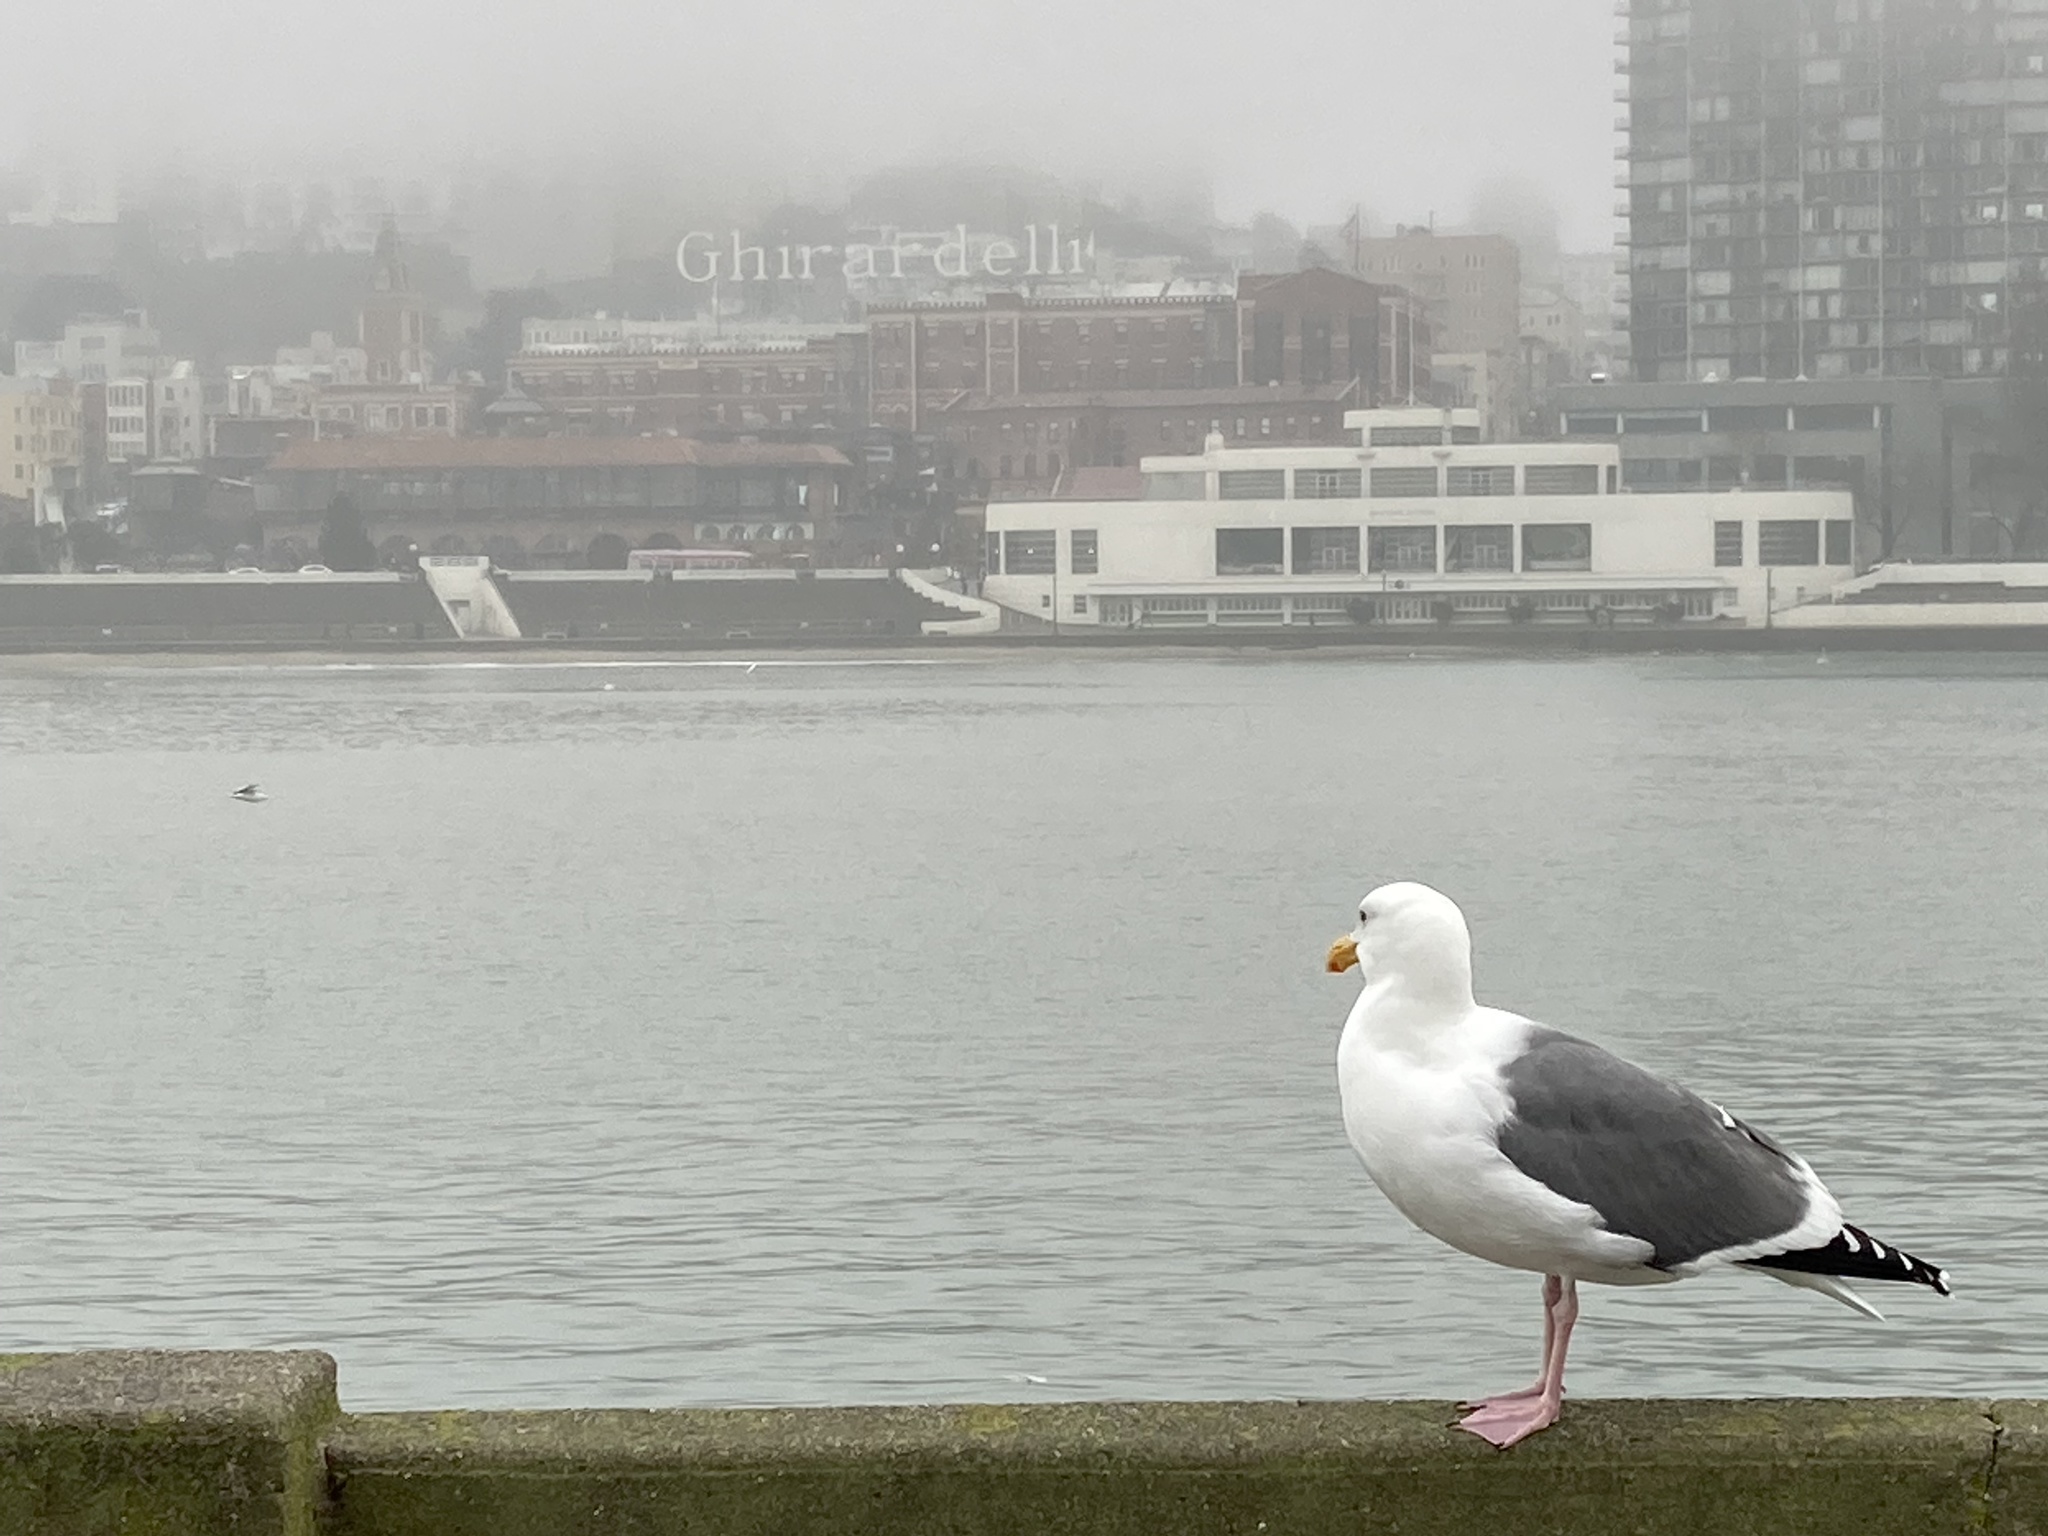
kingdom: Animalia
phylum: Chordata
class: Aves
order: Charadriiformes
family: Laridae
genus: Larus
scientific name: Larus occidentalis
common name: Western gull
